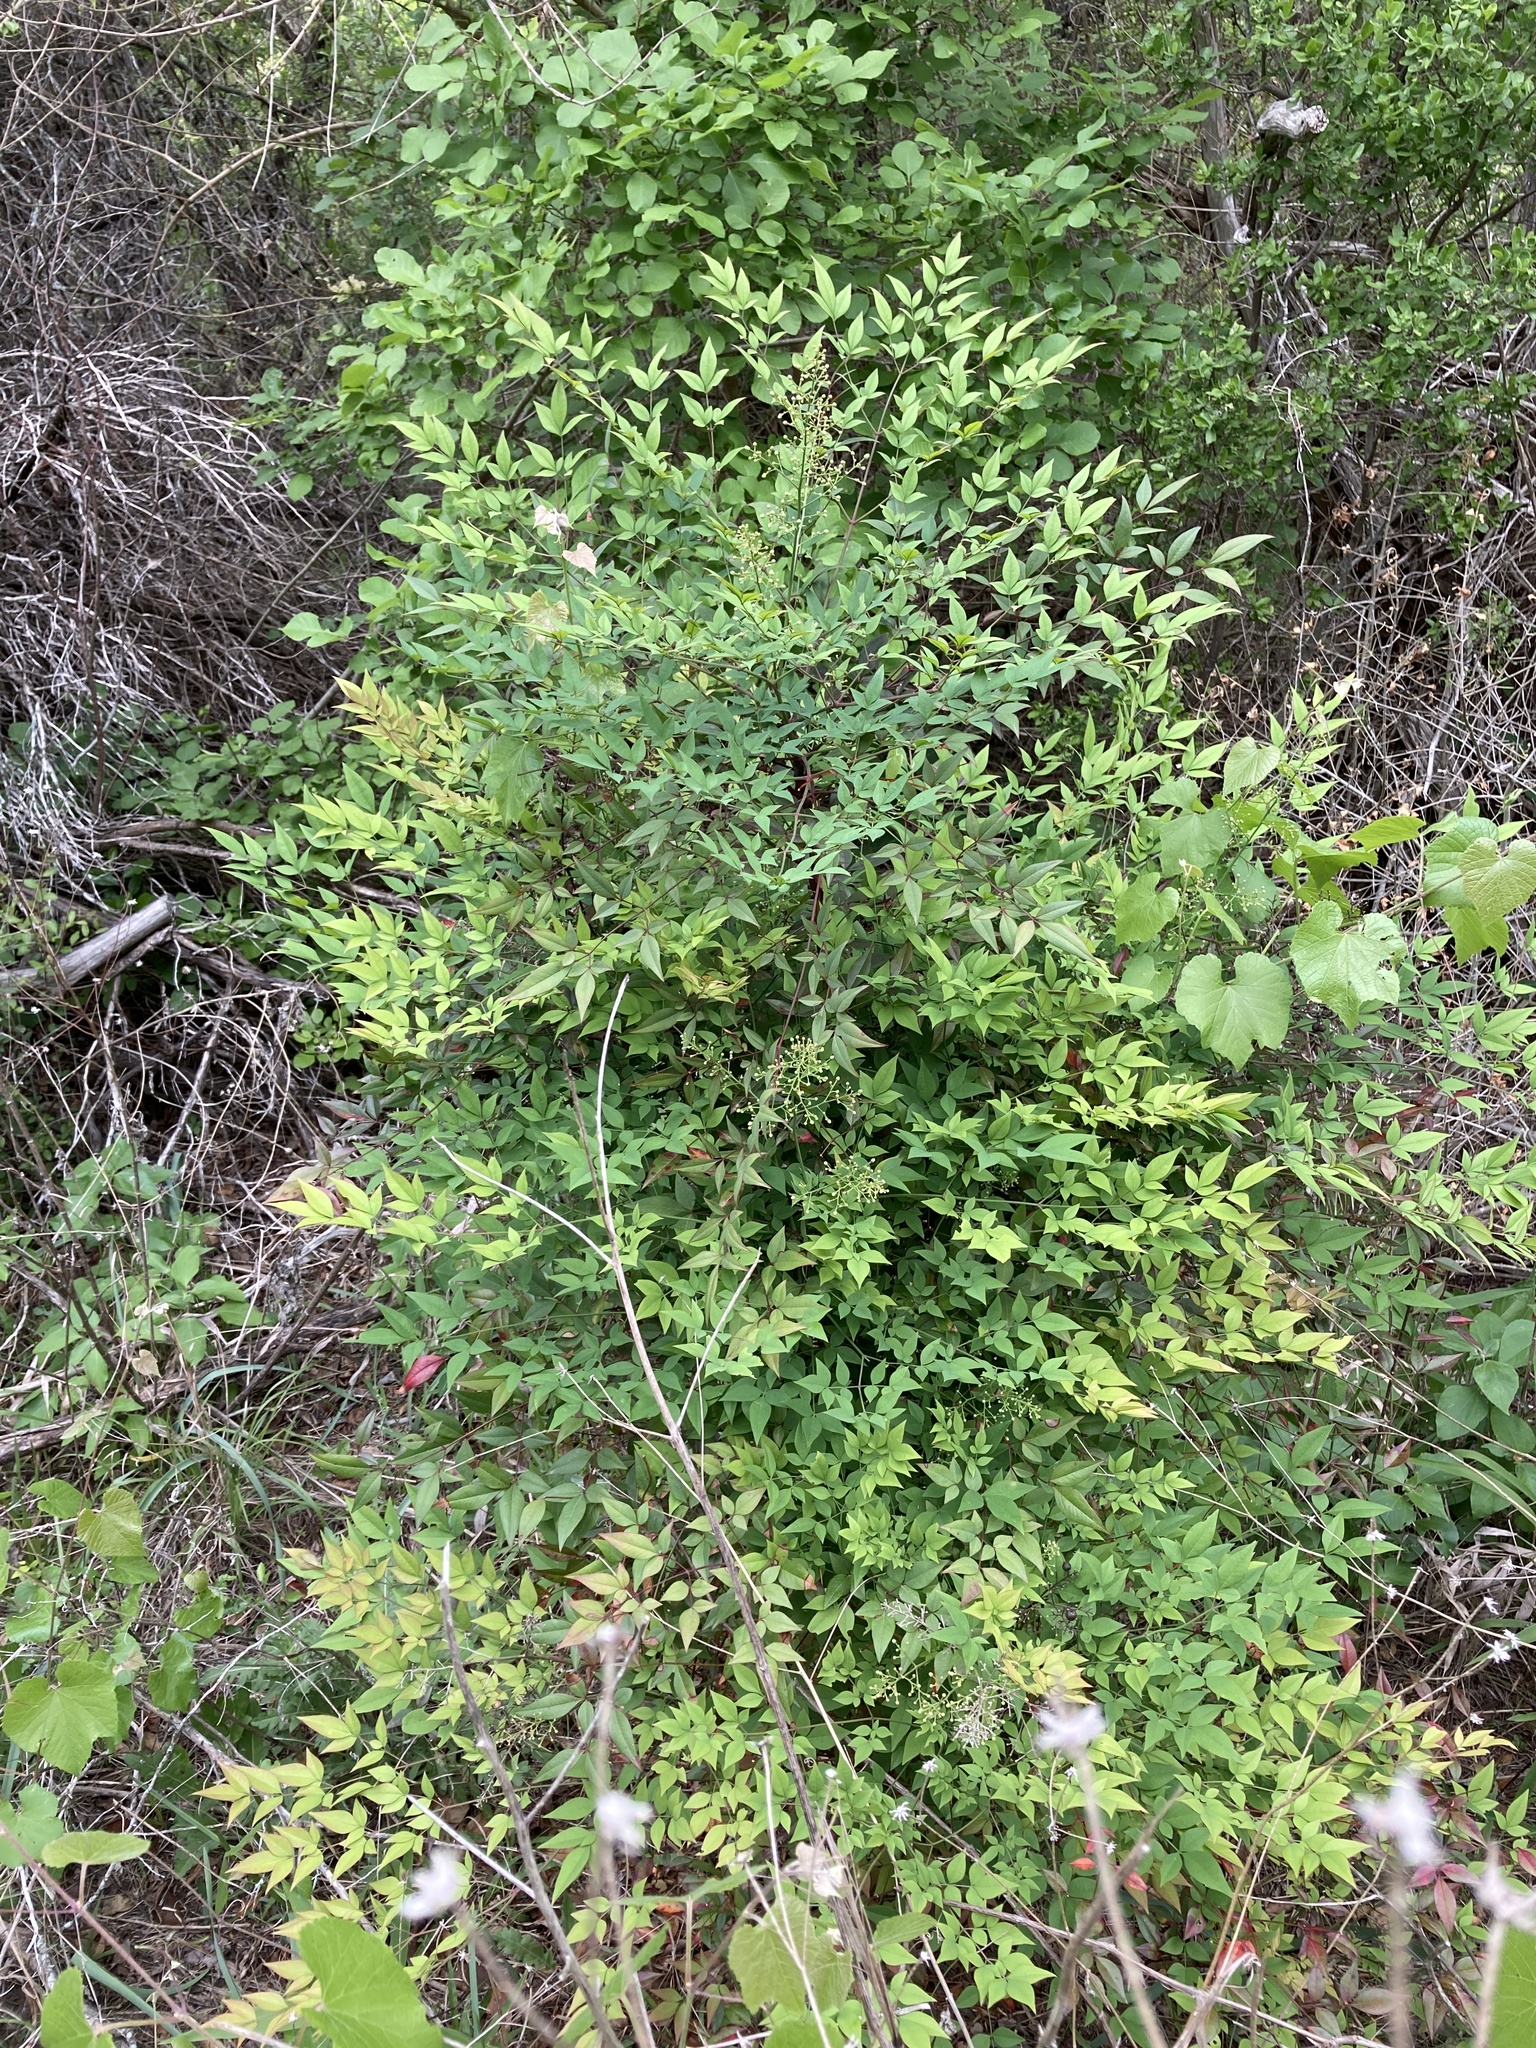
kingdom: Plantae
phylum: Tracheophyta
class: Magnoliopsida
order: Ranunculales
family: Berberidaceae
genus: Nandina
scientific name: Nandina domestica
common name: Sacred bamboo
